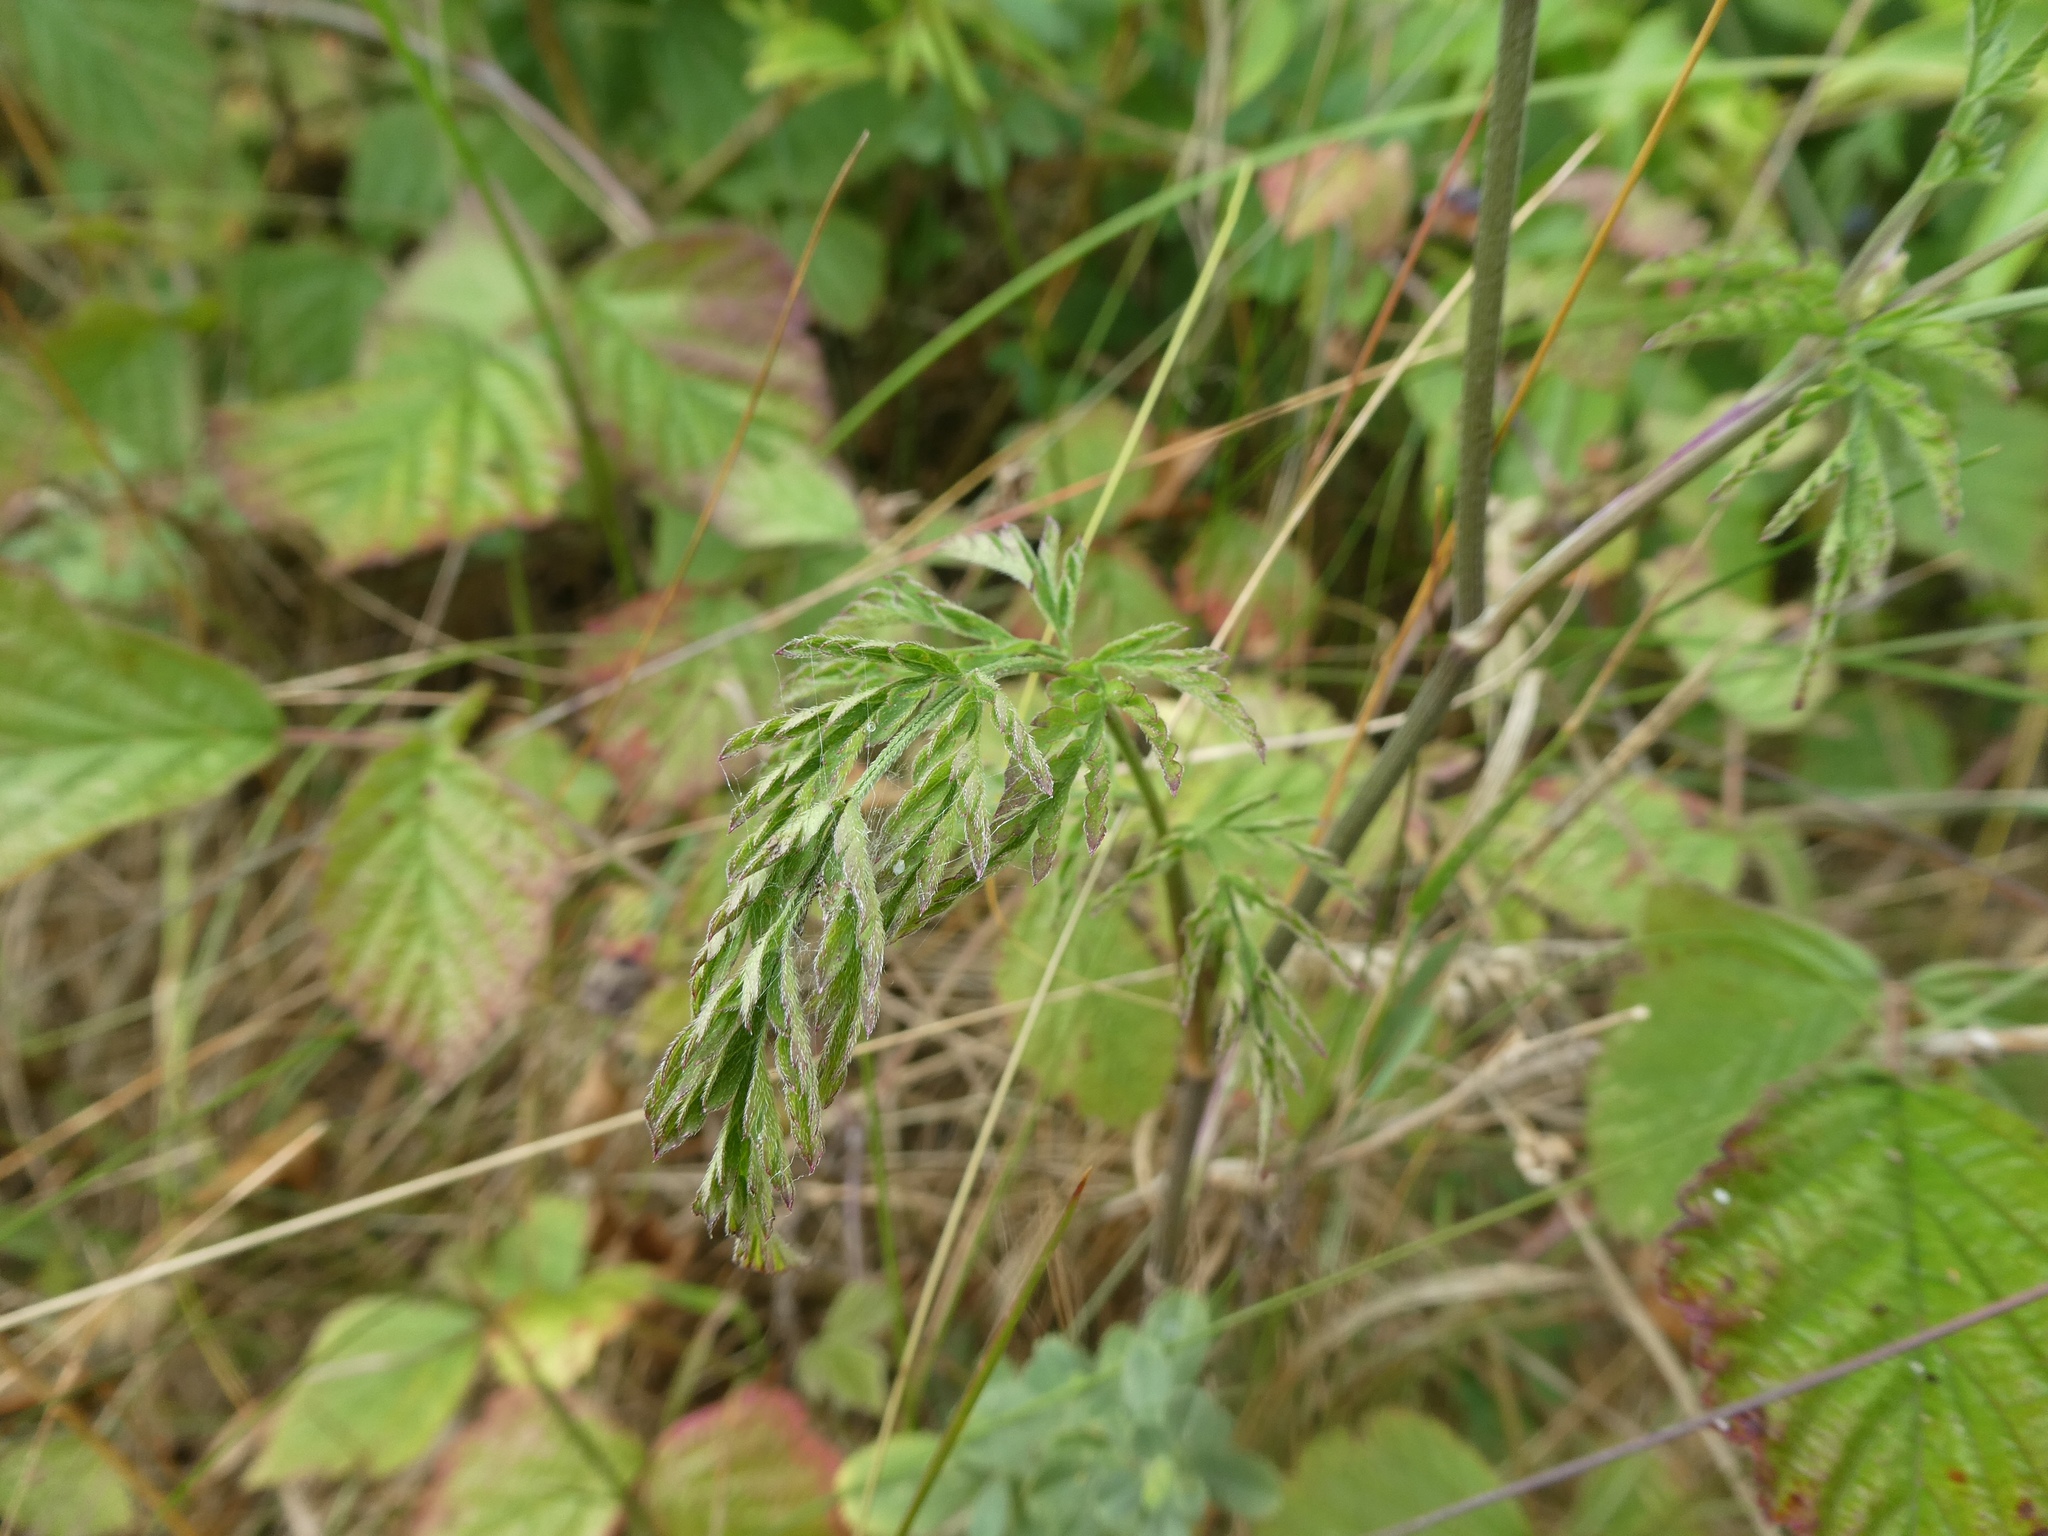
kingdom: Plantae
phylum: Tracheophyta
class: Magnoliopsida
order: Apiales
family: Apiaceae
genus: Torilis
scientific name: Torilis japonica
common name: Upright hedge-parsley
